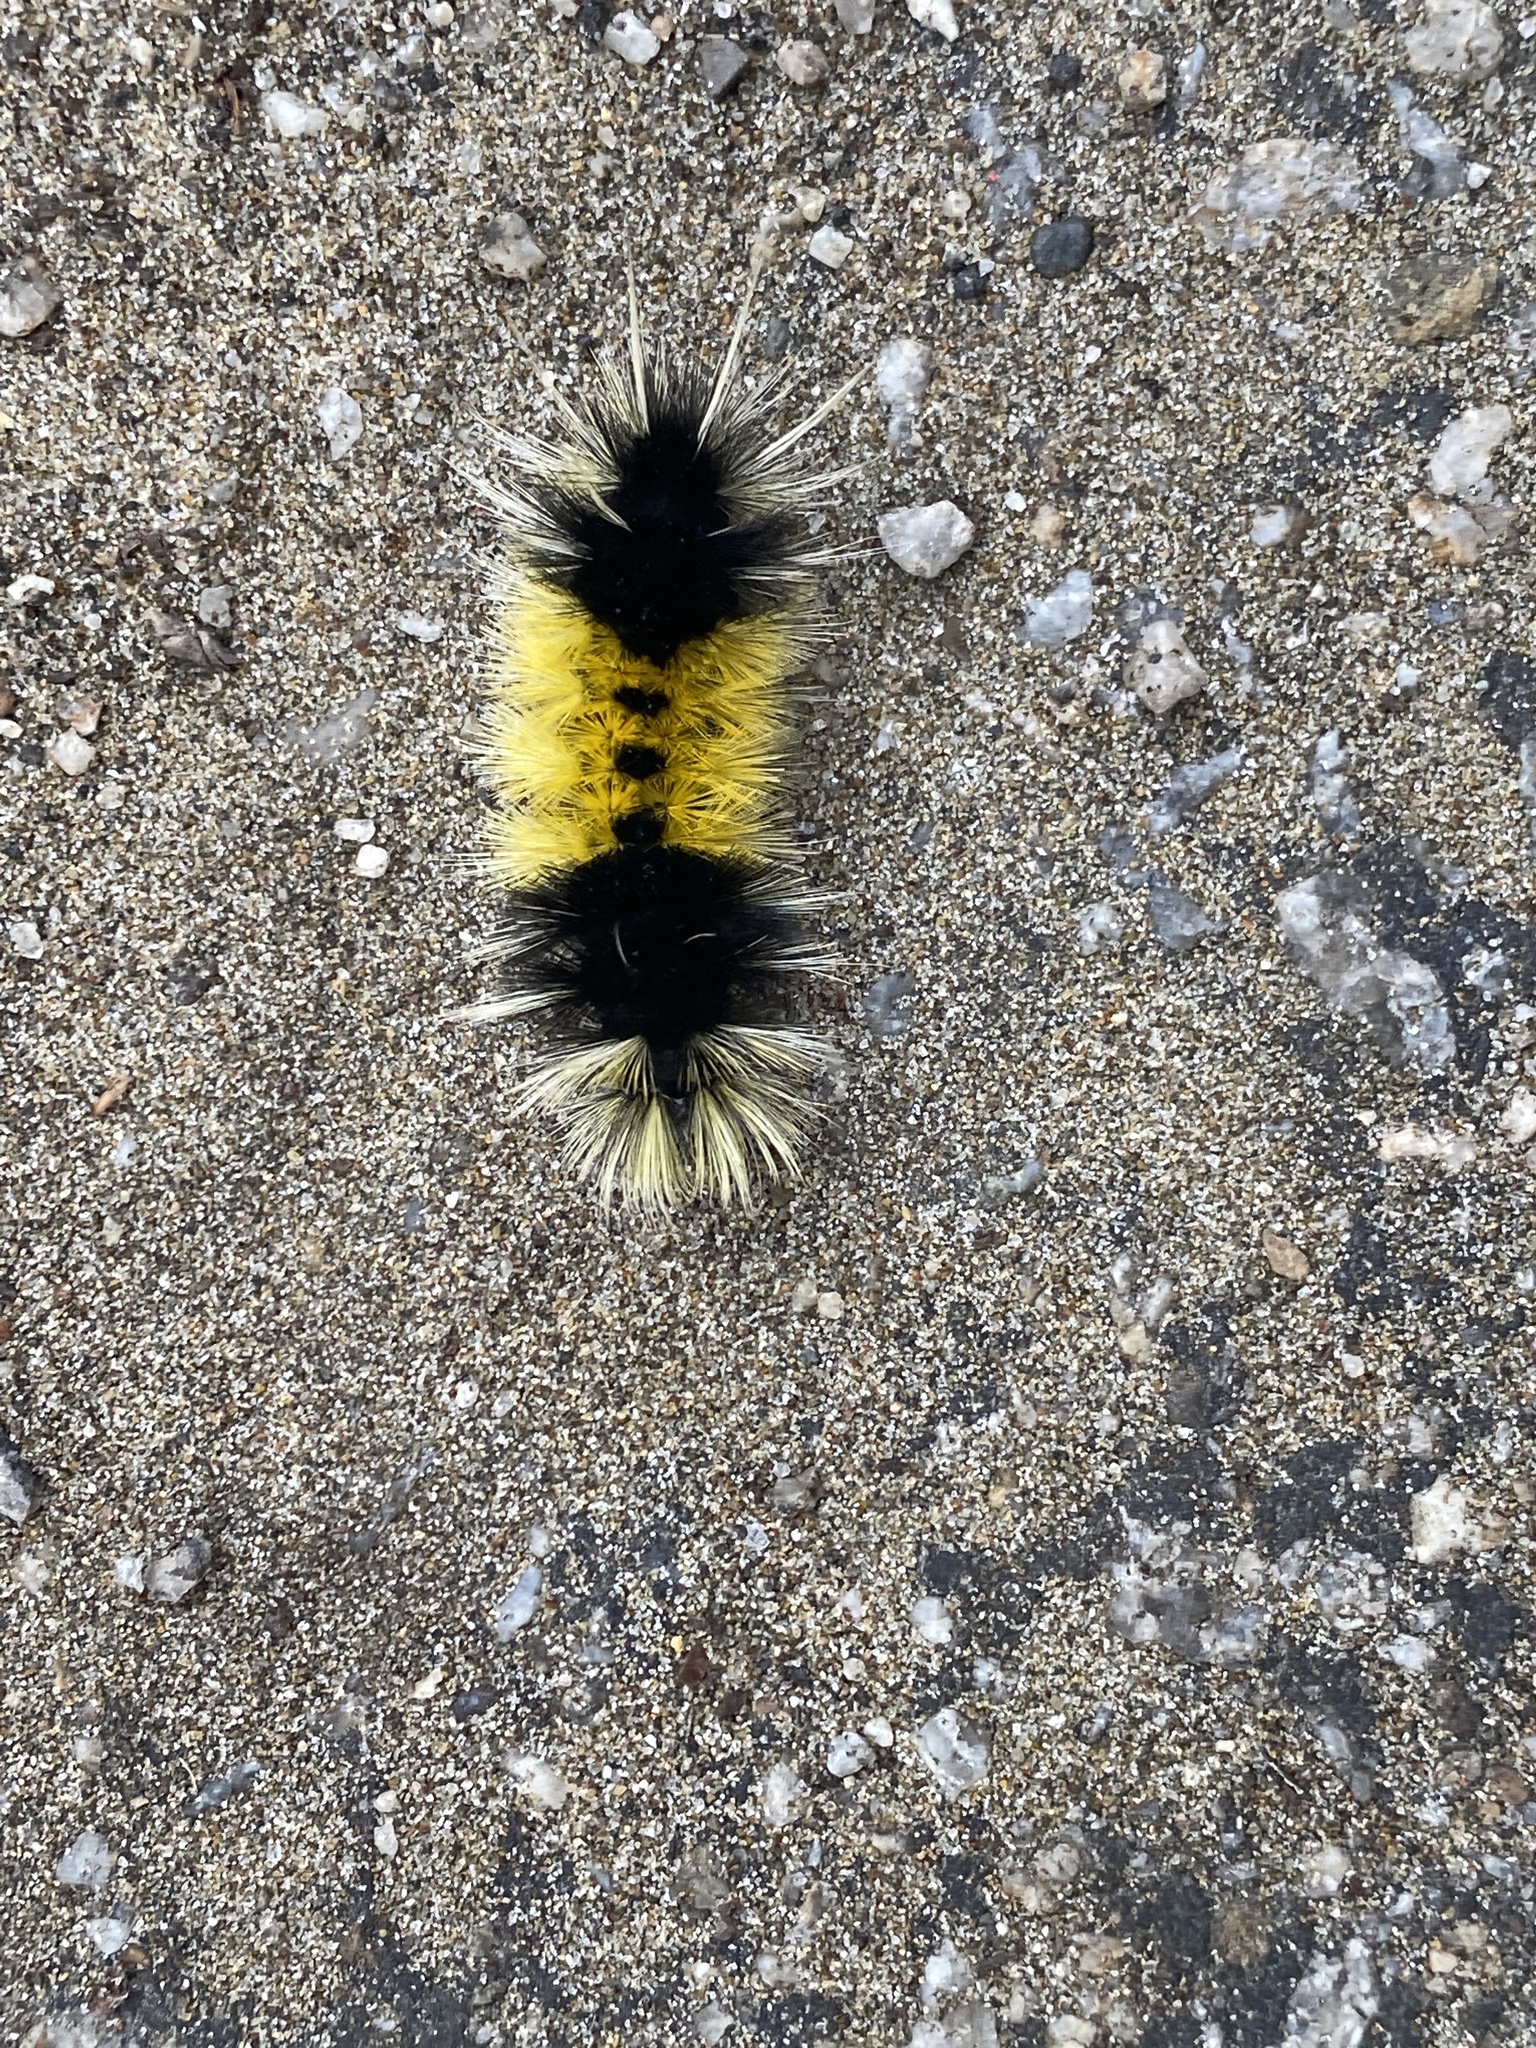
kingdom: Animalia
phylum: Arthropoda
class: Insecta
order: Lepidoptera
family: Erebidae
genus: Lophocampa
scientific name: Lophocampa maculata
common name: Spotted tussock moth
